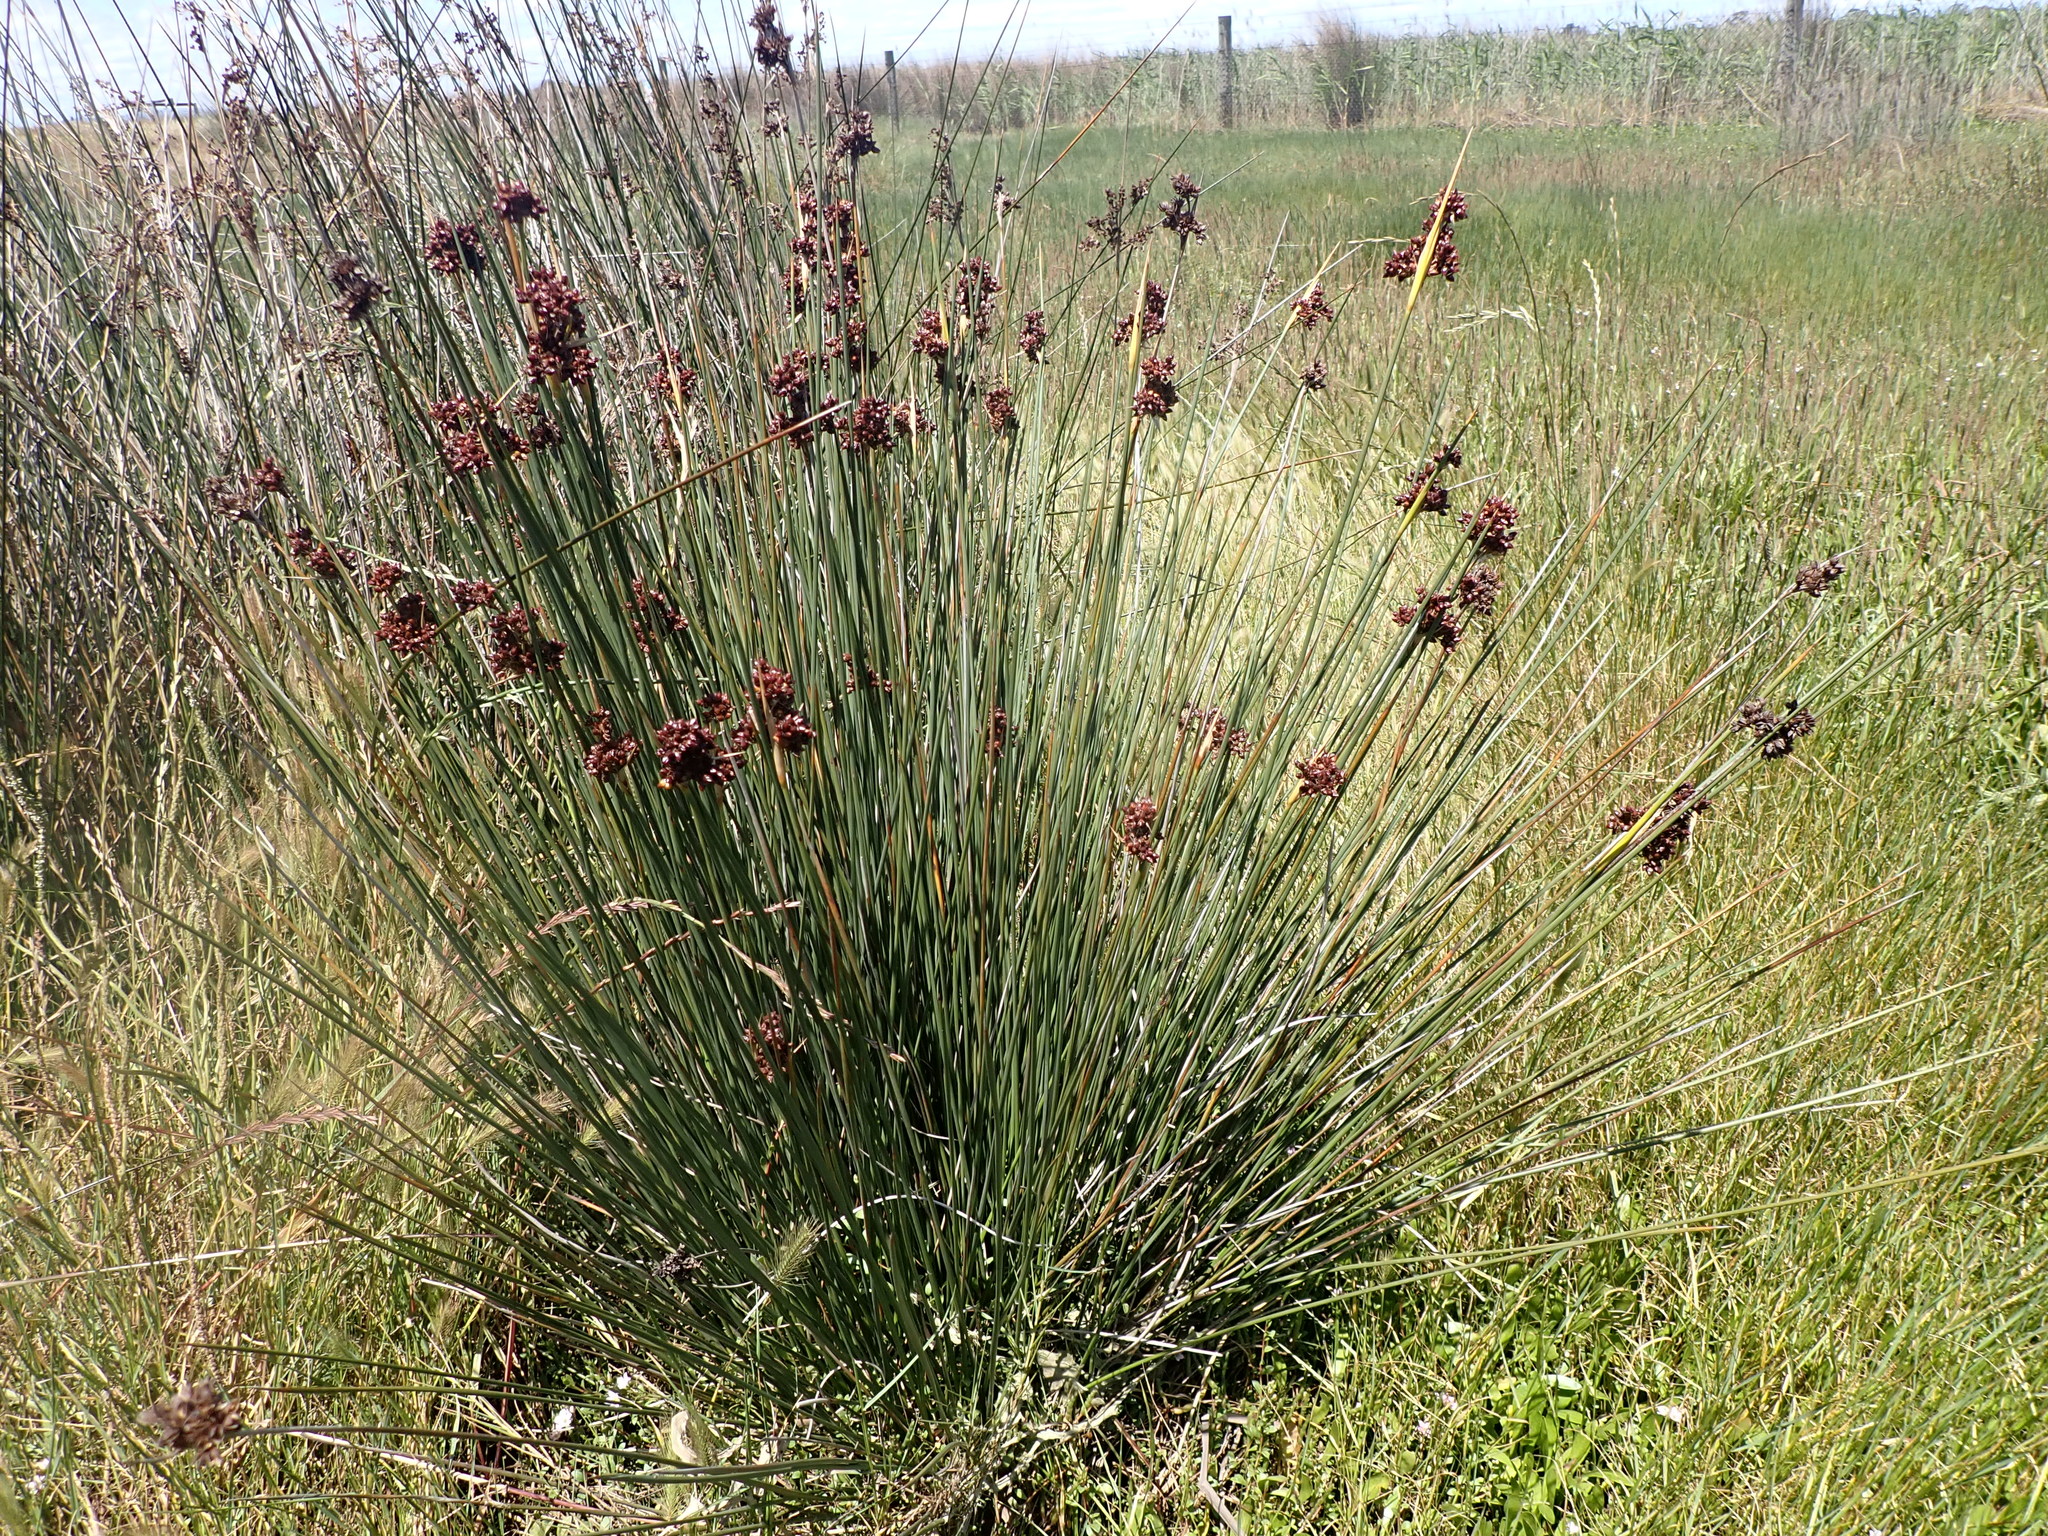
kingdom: Plantae
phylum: Tracheophyta
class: Liliopsida
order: Poales
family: Juncaceae
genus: Juncus
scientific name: Juncus acutus
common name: Sharp rush
